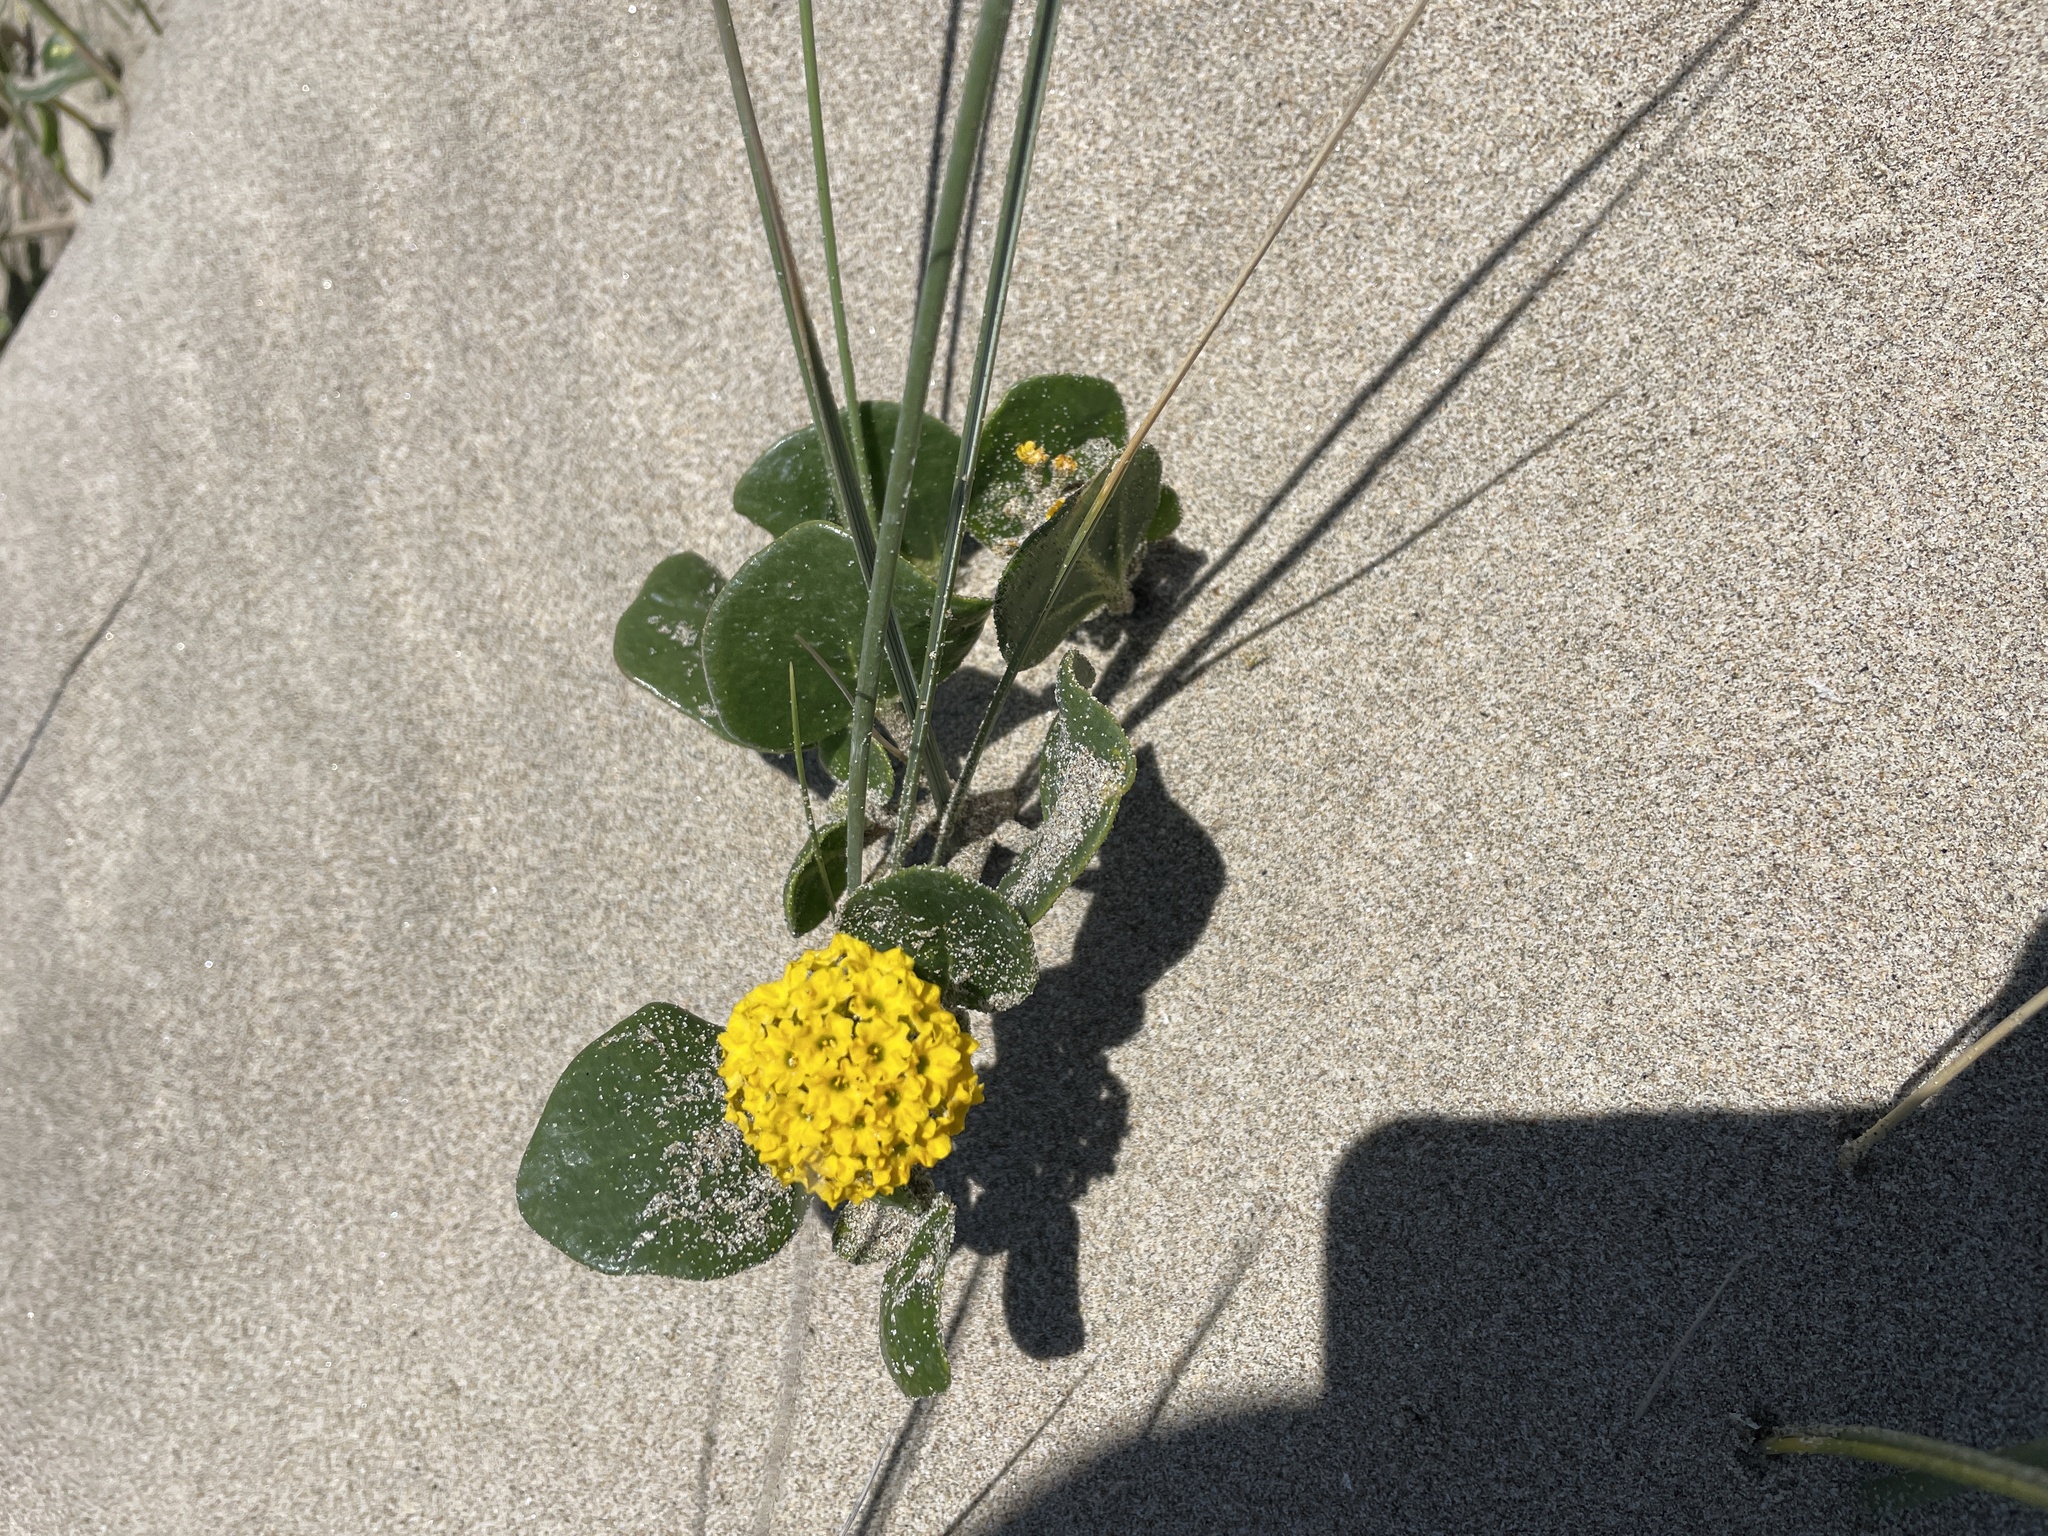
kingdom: Plantae
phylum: Tracheophyta
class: Magnoliopsida
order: Caryophyllales
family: Nyctaginaceae
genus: Abronia
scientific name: Abronia latifolia
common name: Yellow sand-verbena
